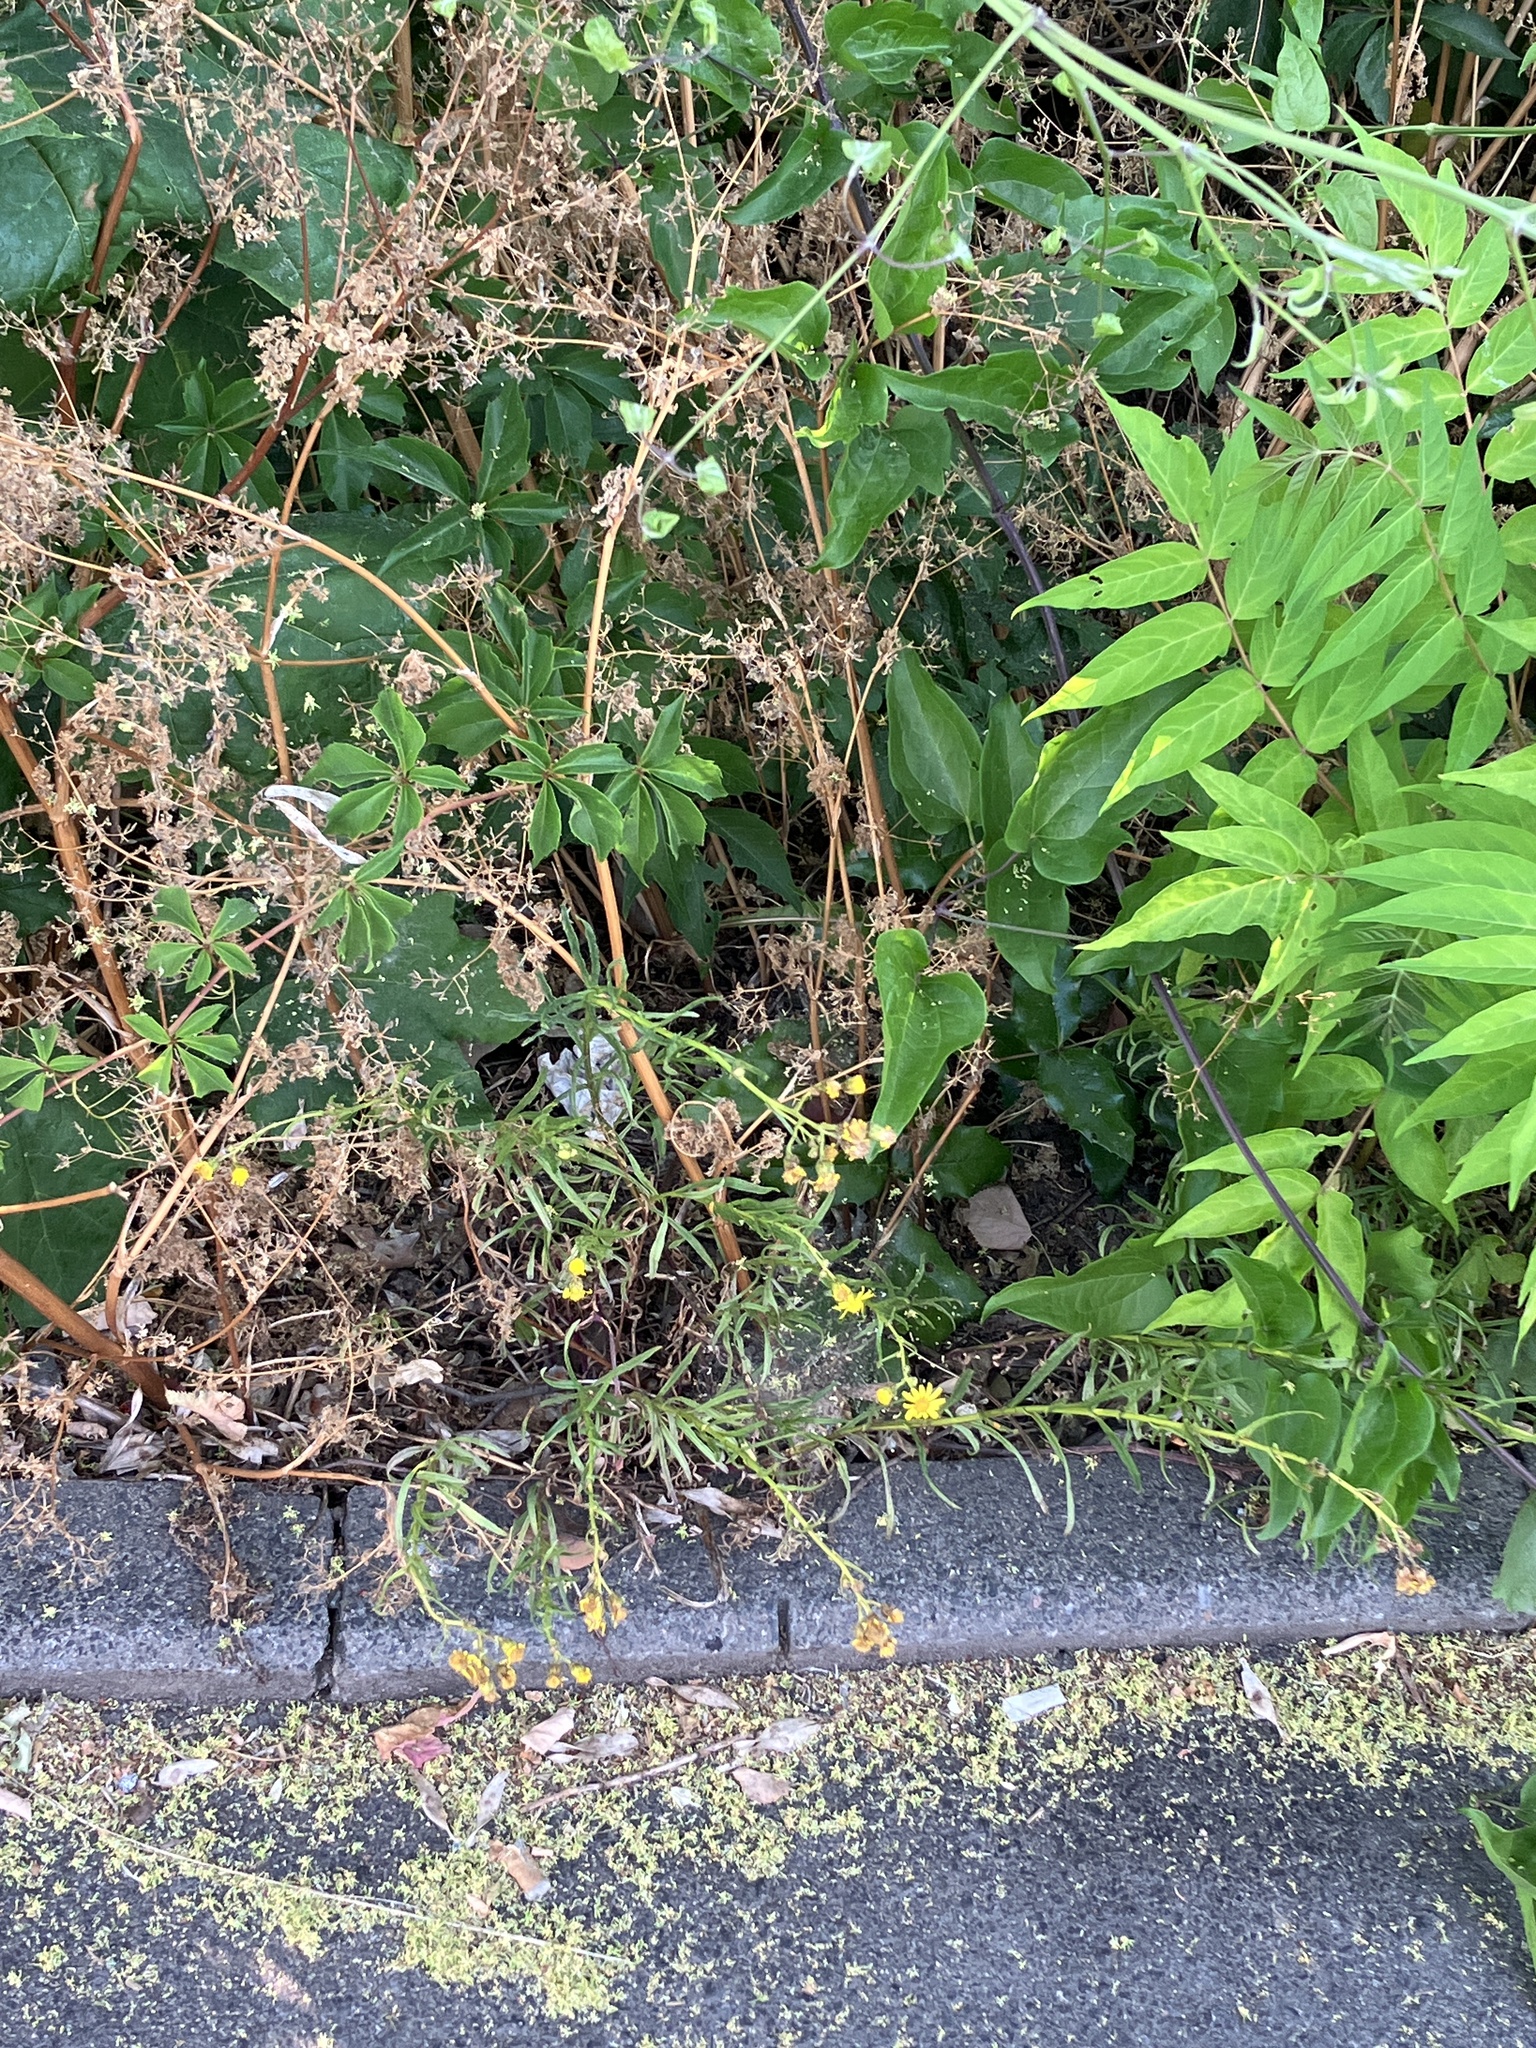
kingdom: Plantae
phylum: Tracheophyta
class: Magnoliopsida
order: Asterales
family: Asteraceae
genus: Senecio
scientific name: Senecio inaequidens
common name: Narrow-leaved ragwort
